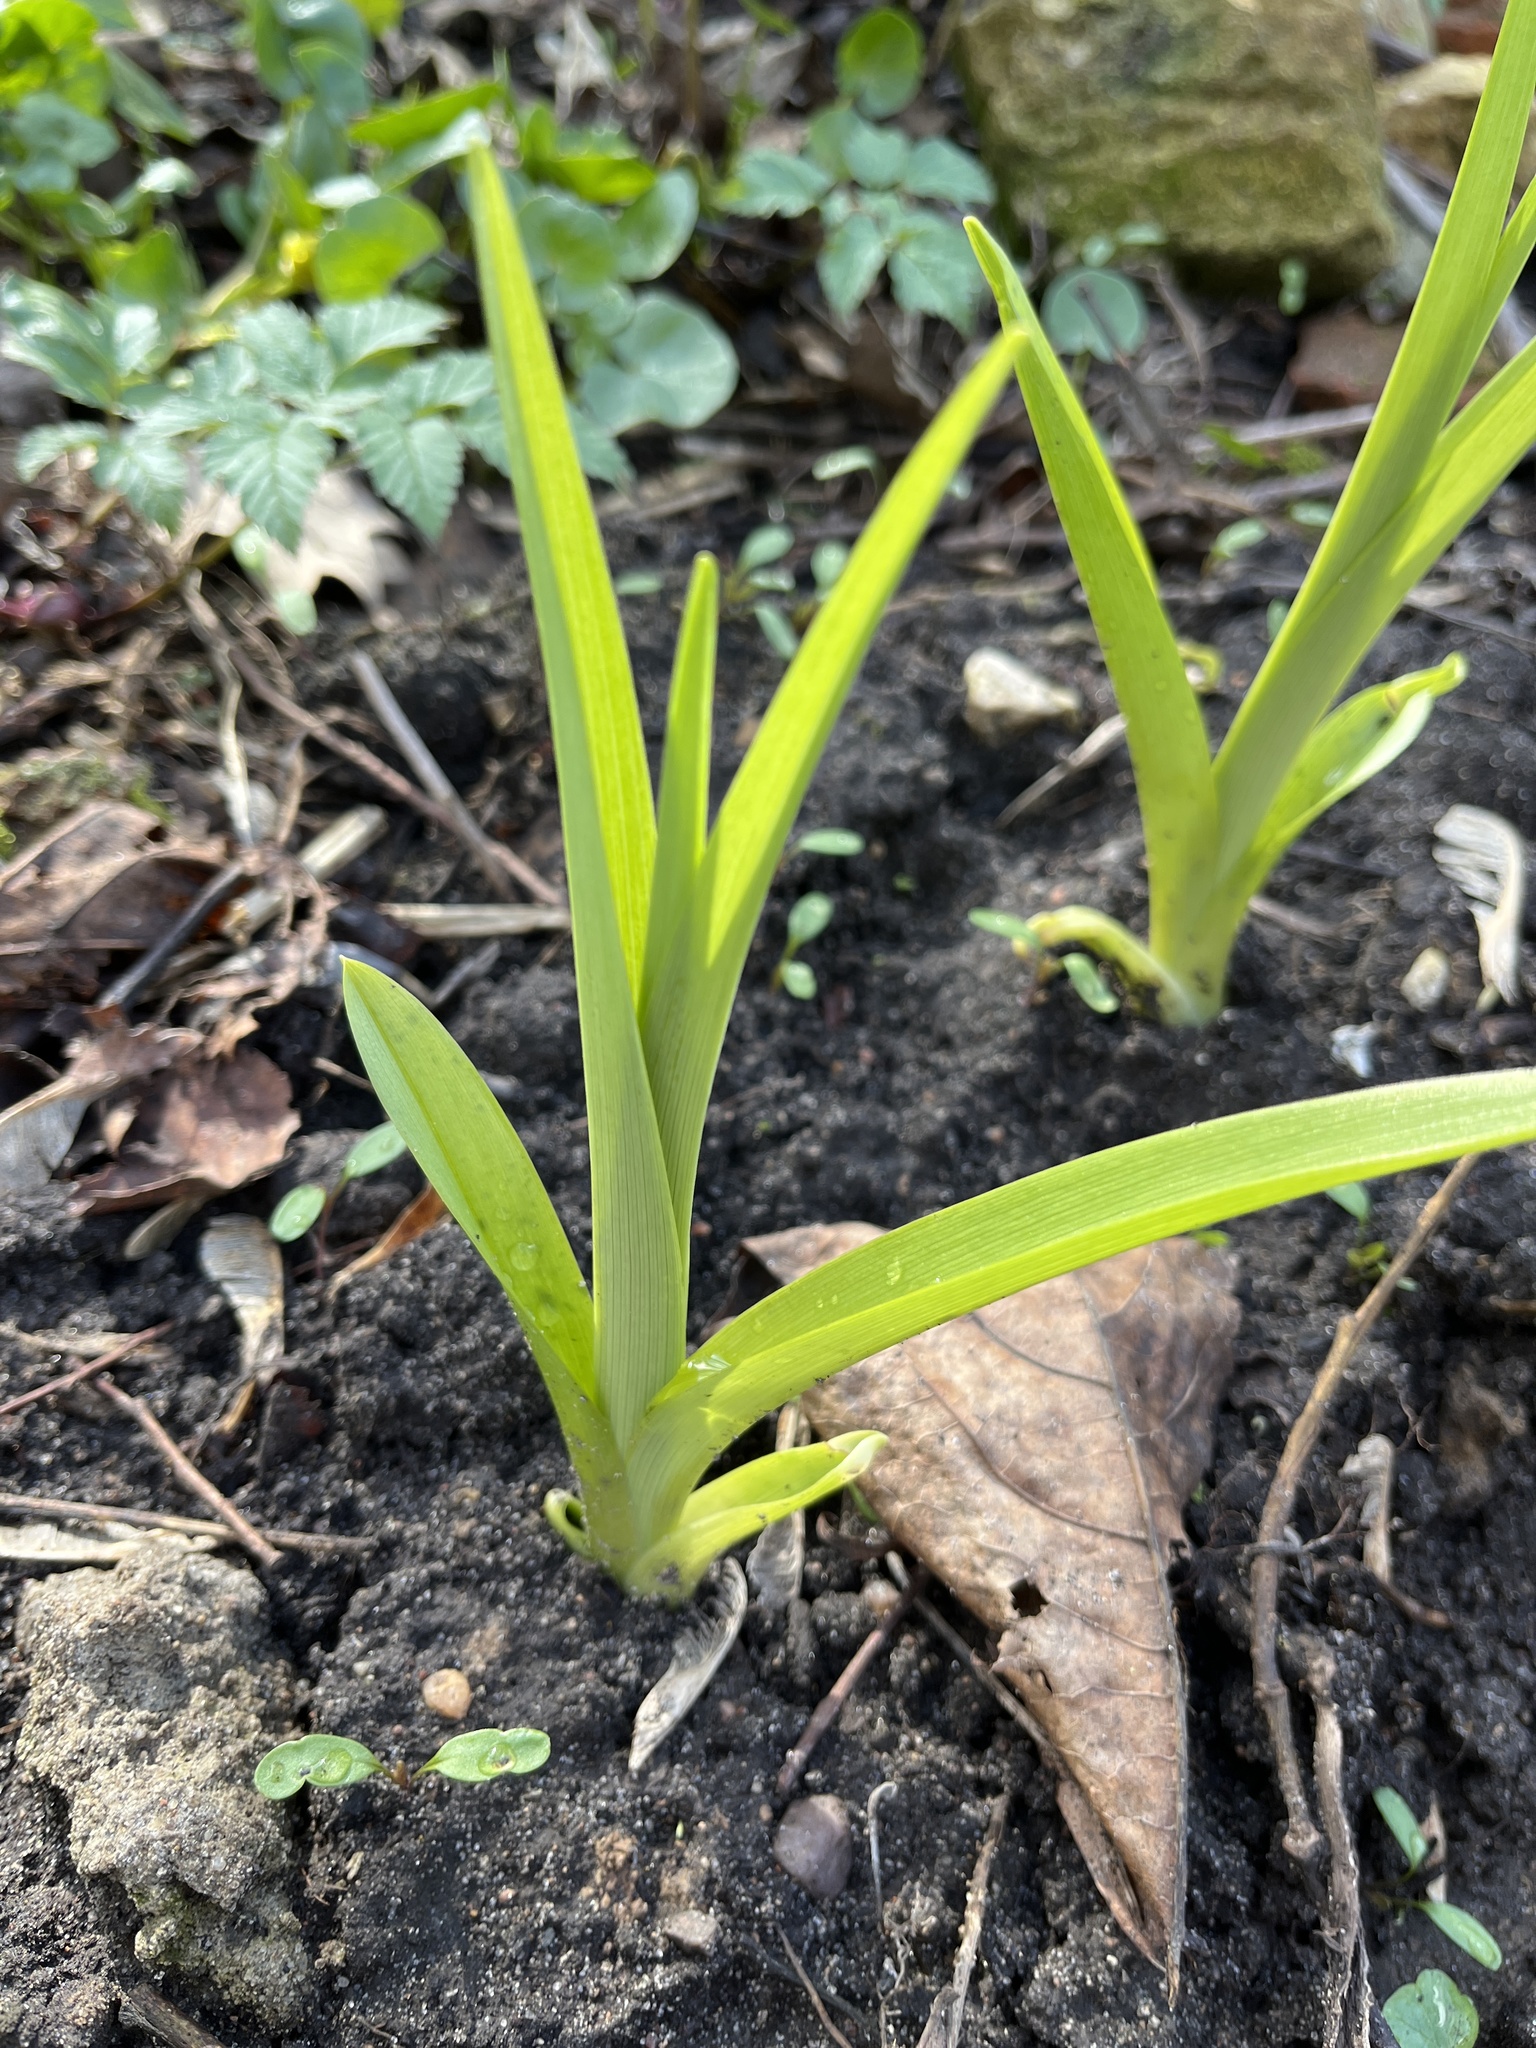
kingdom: Plantae
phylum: Tracheophyta
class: Liliopsida
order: Asparagales
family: Asphodelaceae
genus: Hemerocallis
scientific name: Hemerocallis fulva
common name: Orange day-lily
